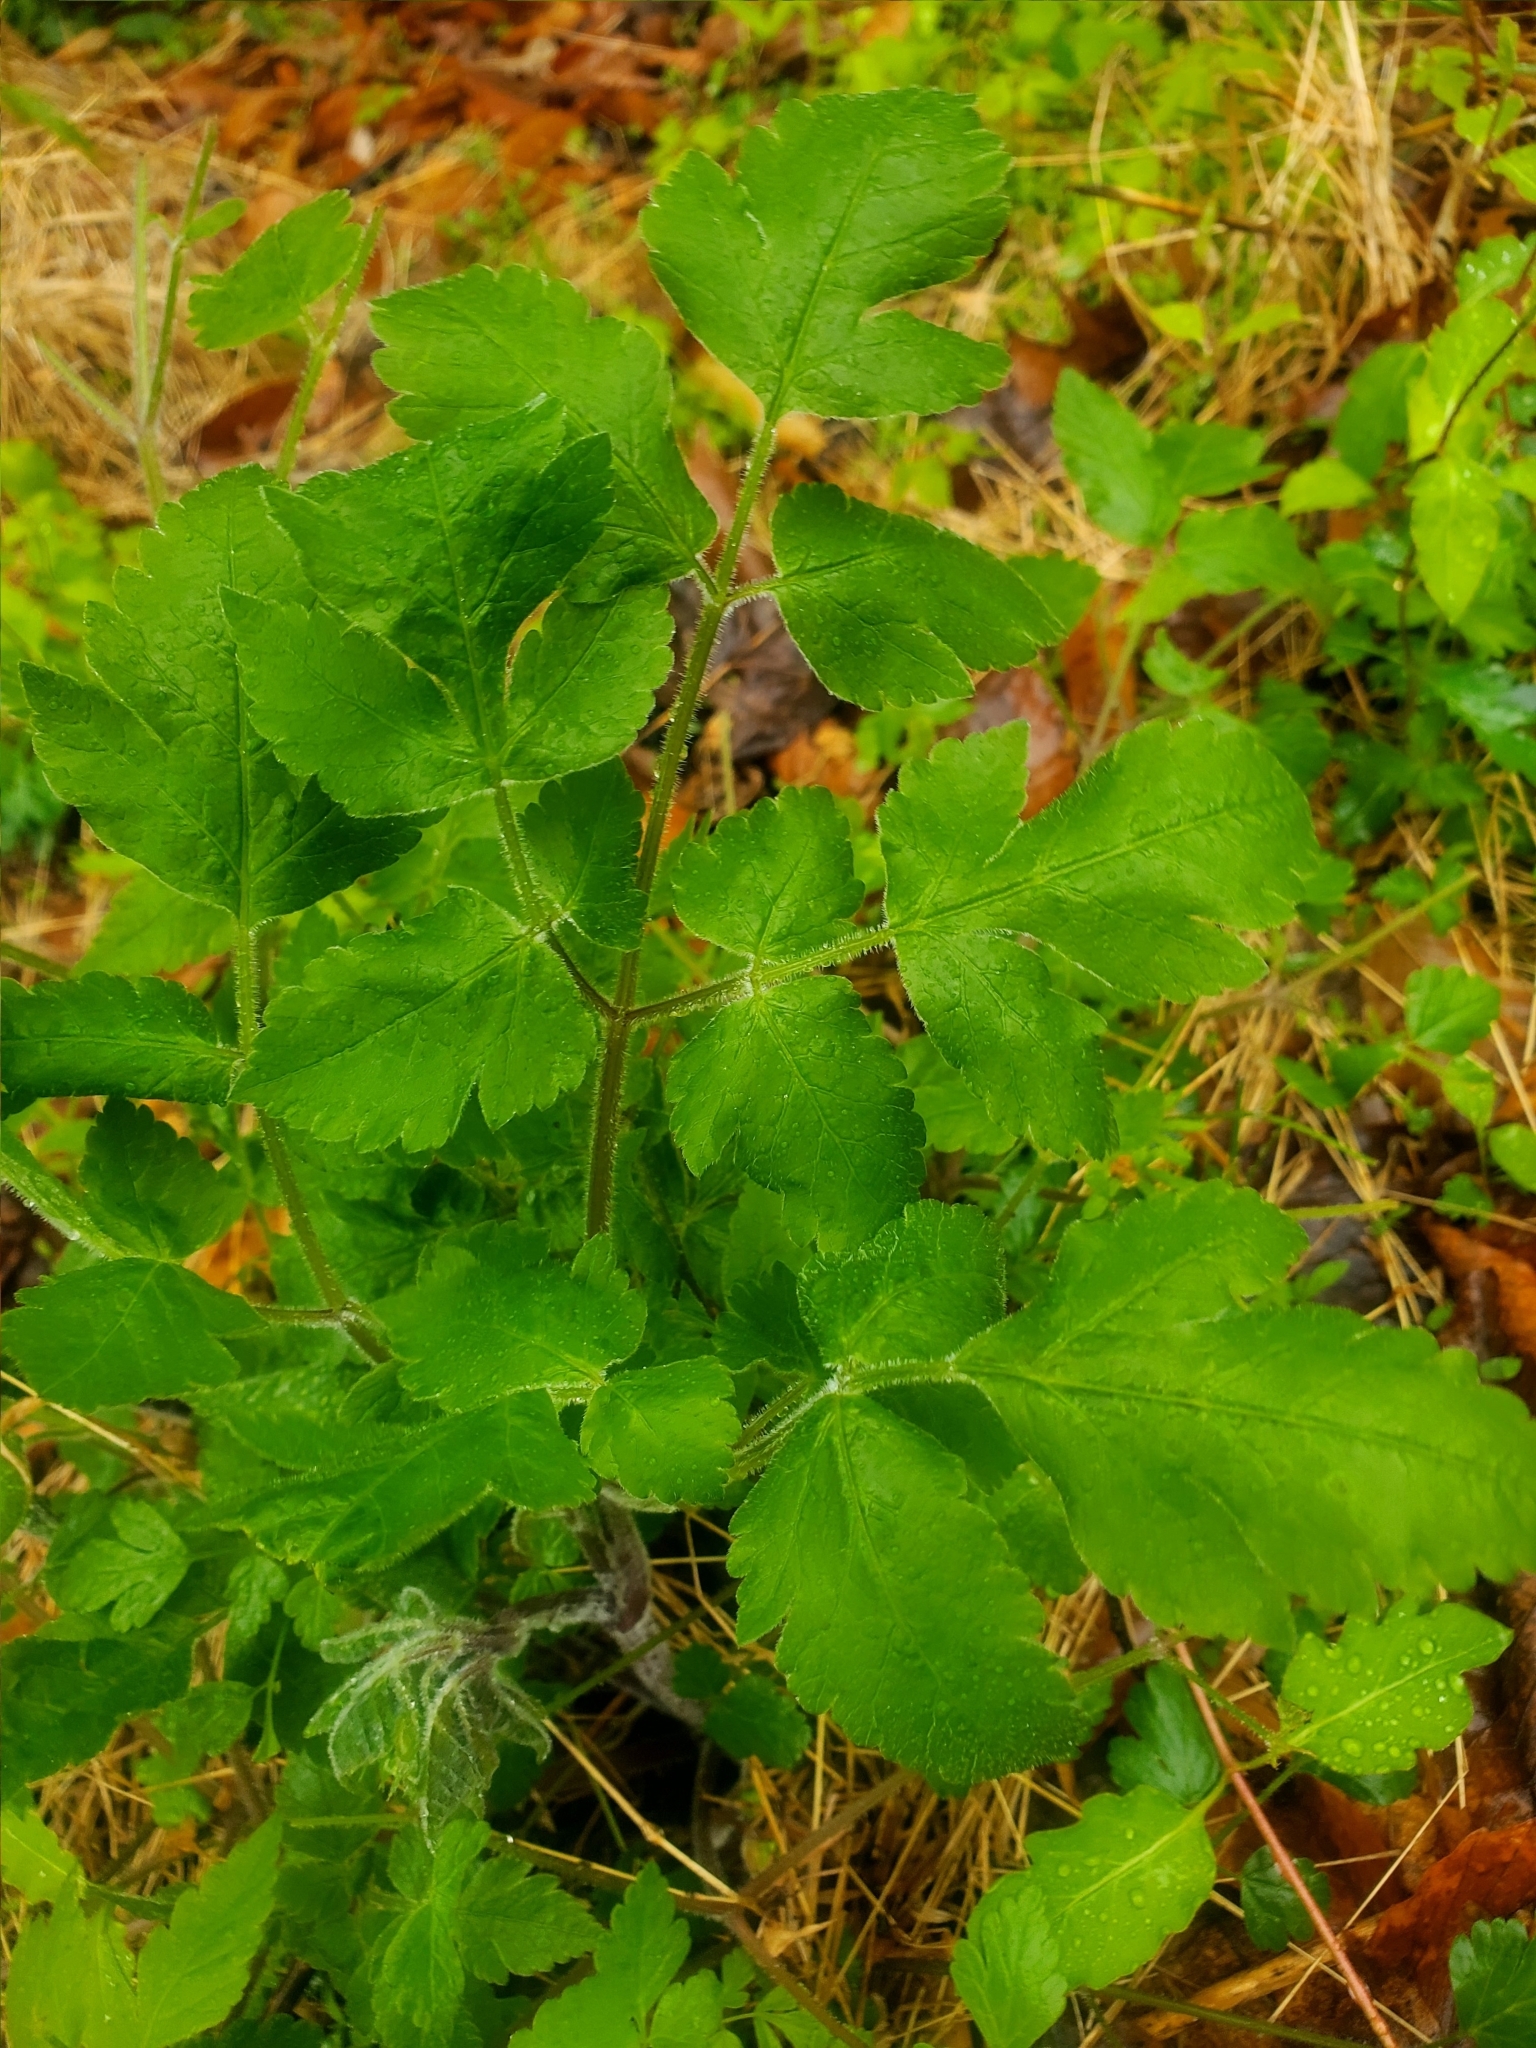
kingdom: Plantae
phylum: Tracheophyta
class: Magnoliopsida
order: Ranunculales
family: Papaveraceae
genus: Chelidonium
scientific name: Chelidonium majus
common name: Greater celandine
